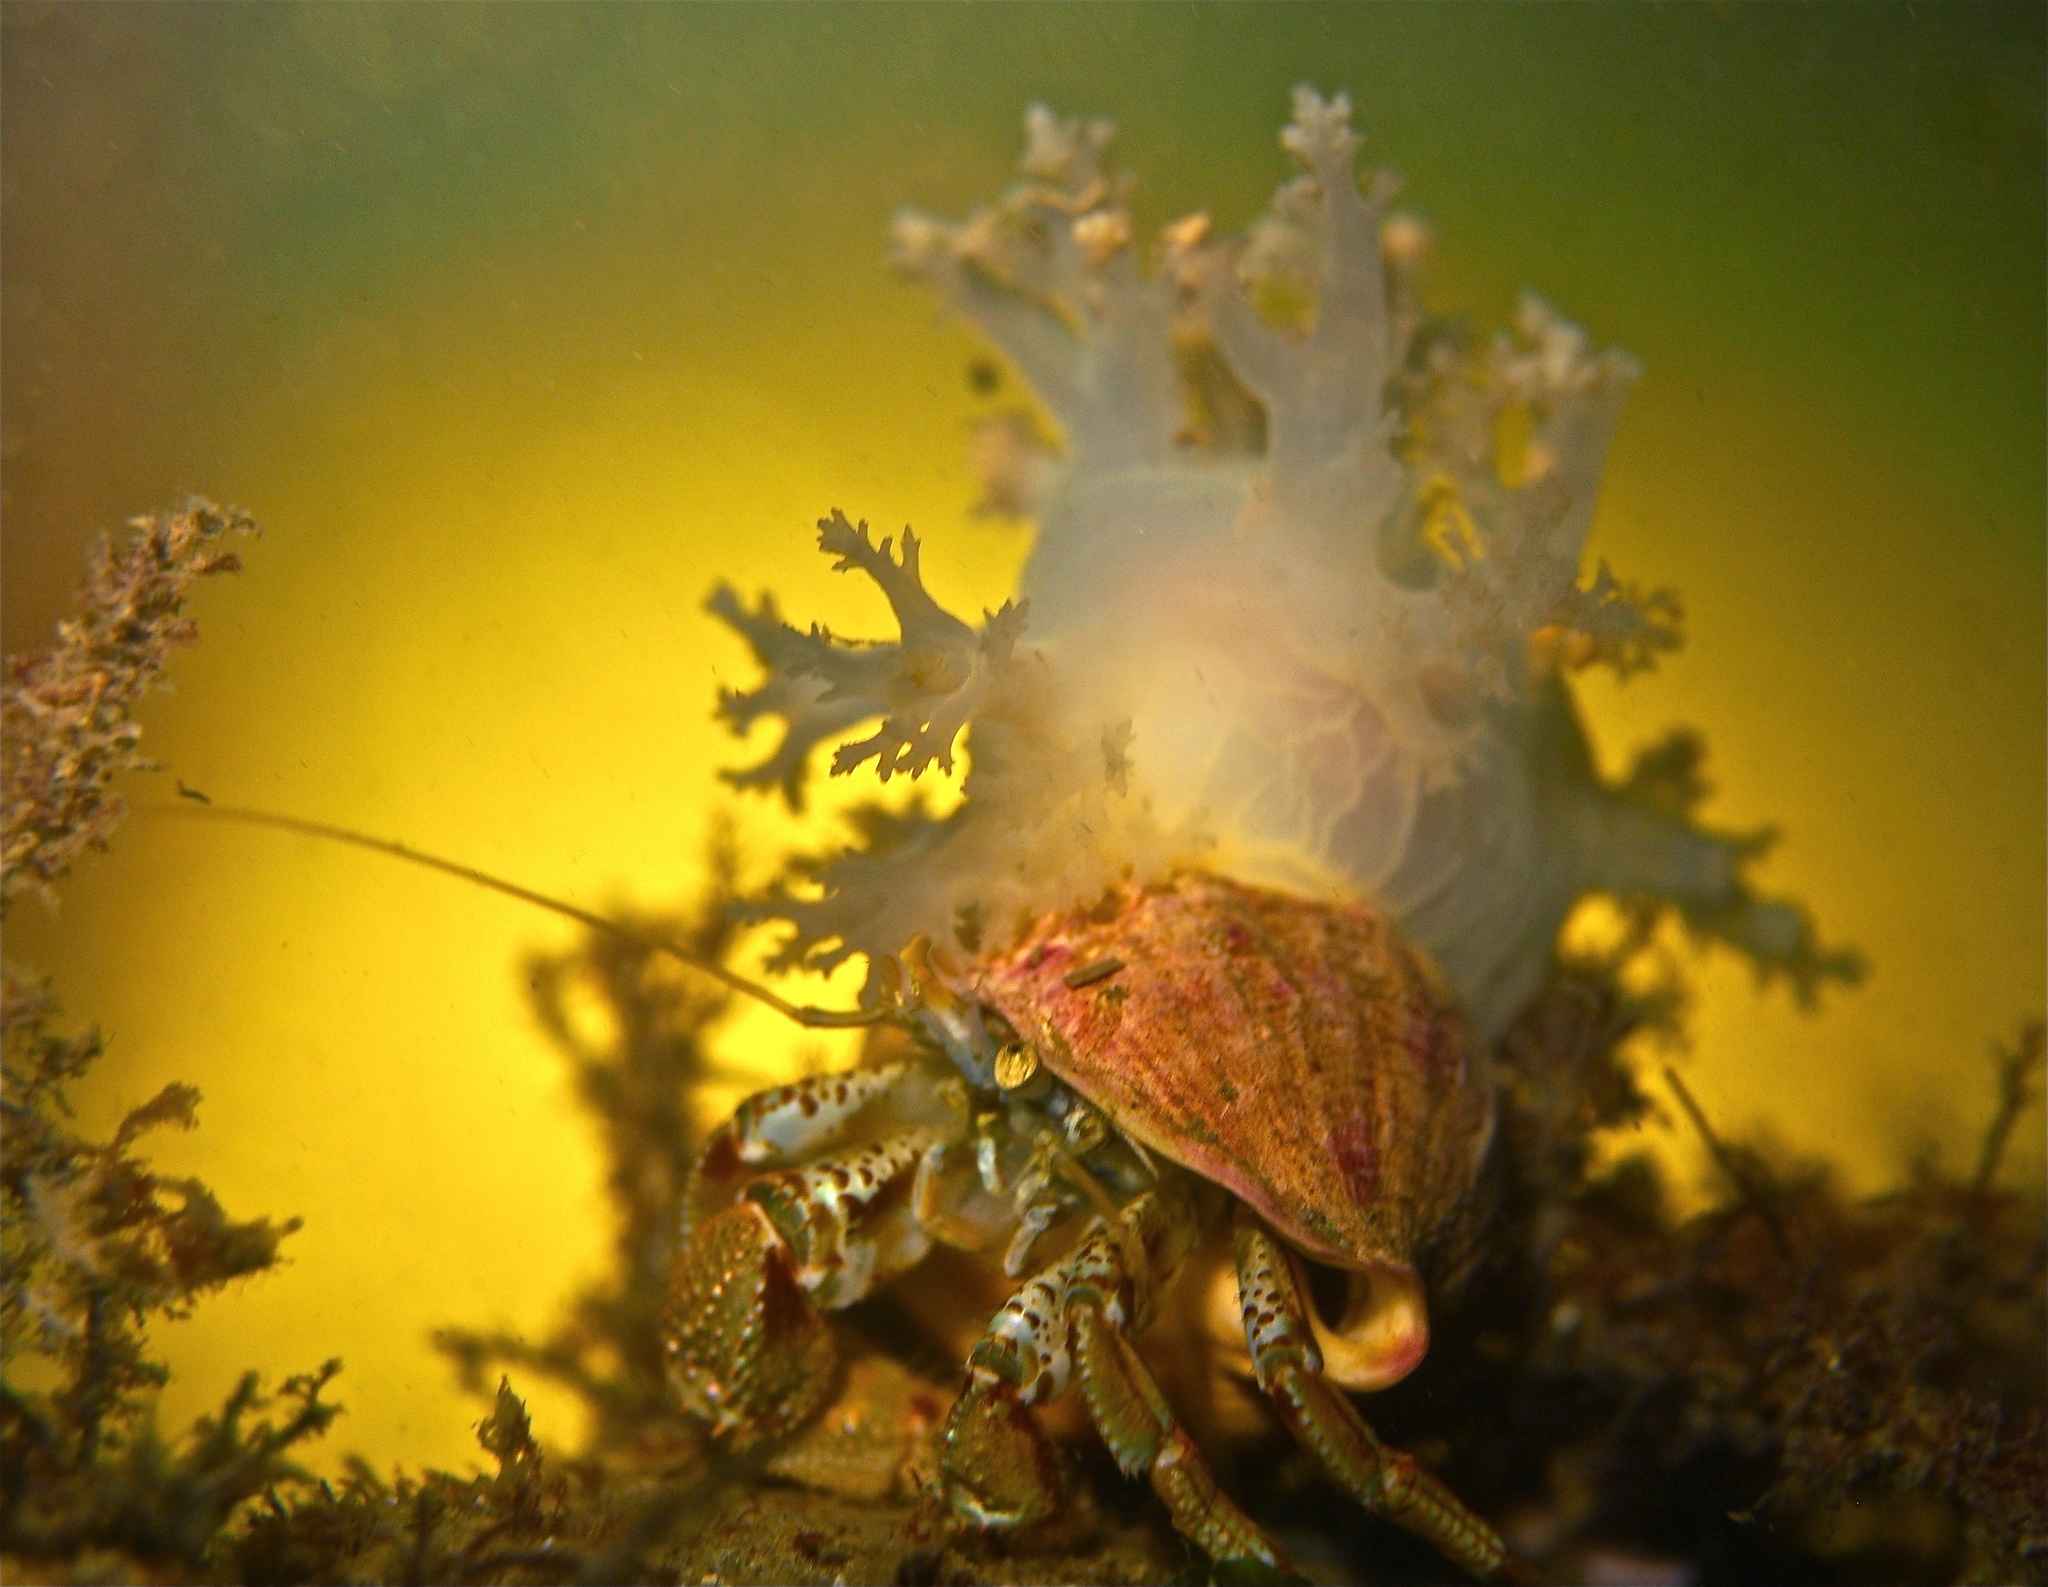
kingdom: Animalia
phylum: Mollusca
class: Gastropoda
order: Nudibranchia
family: Dendronotidae
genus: Dendronotus
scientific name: Dendronotus lacteus
